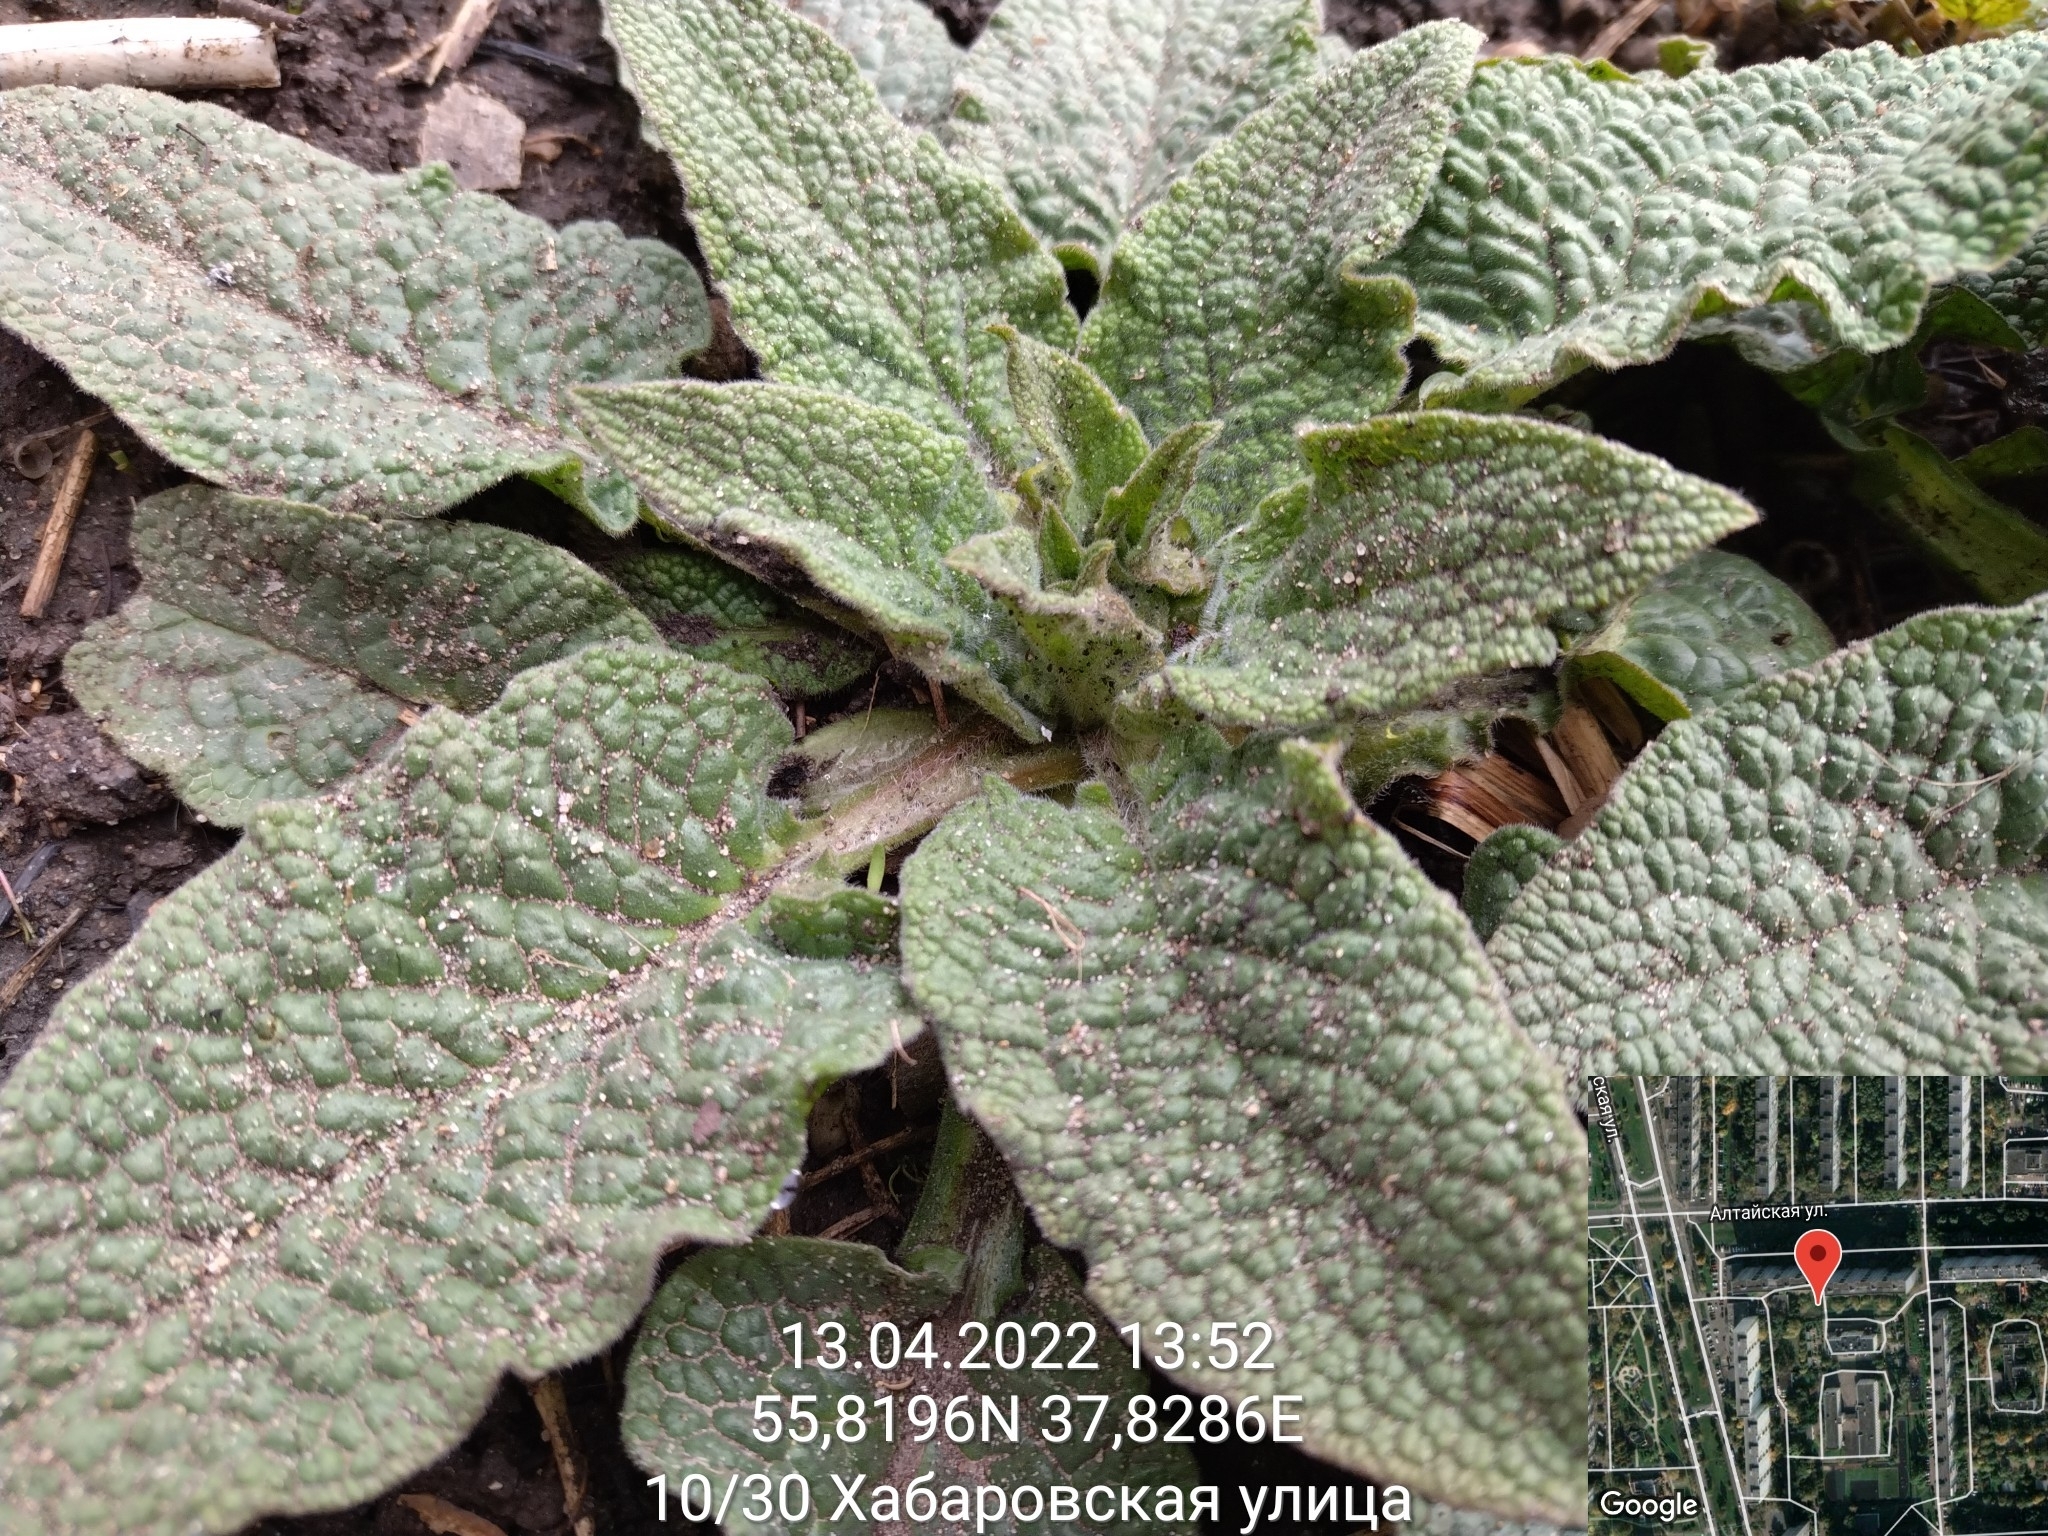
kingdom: Plantae
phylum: Tracheophyta
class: Magnoliopsida
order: Boraginales
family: Boraginaceae
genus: Symphytum
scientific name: Symphytum caucasicum
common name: Caucasian comfrey
